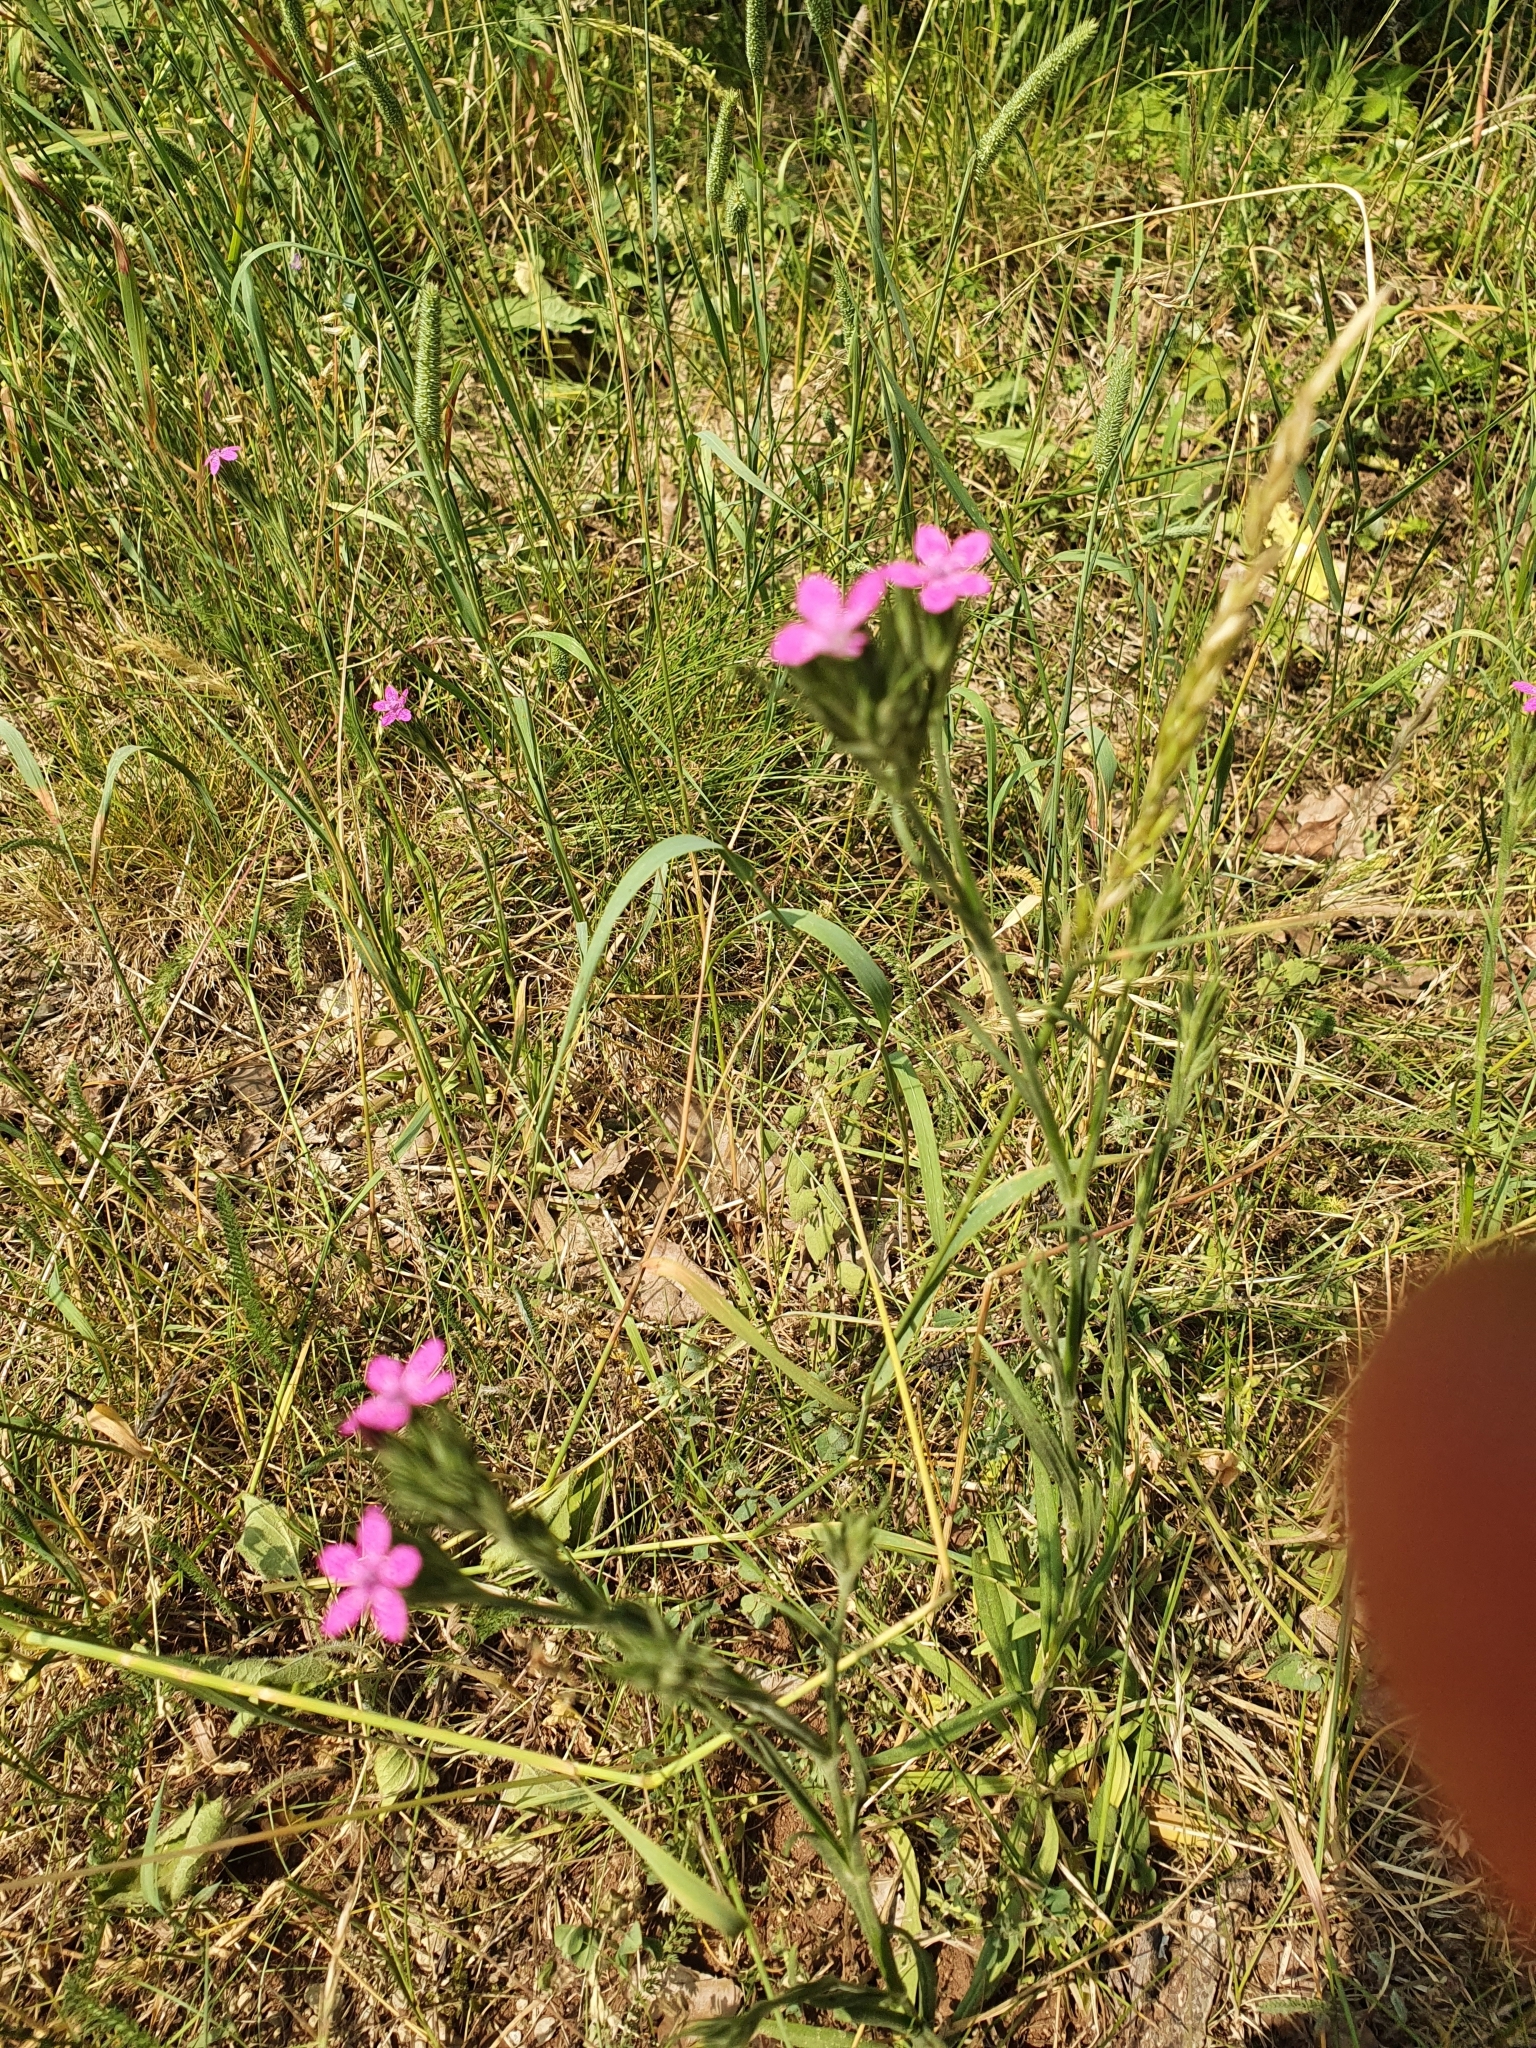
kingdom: Plantae
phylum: Tracheophyta
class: Magnoliopsida
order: Caryophyllales
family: Caryophyllaceae
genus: Dianthus
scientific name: Dianthus armeria
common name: Deptford pink
